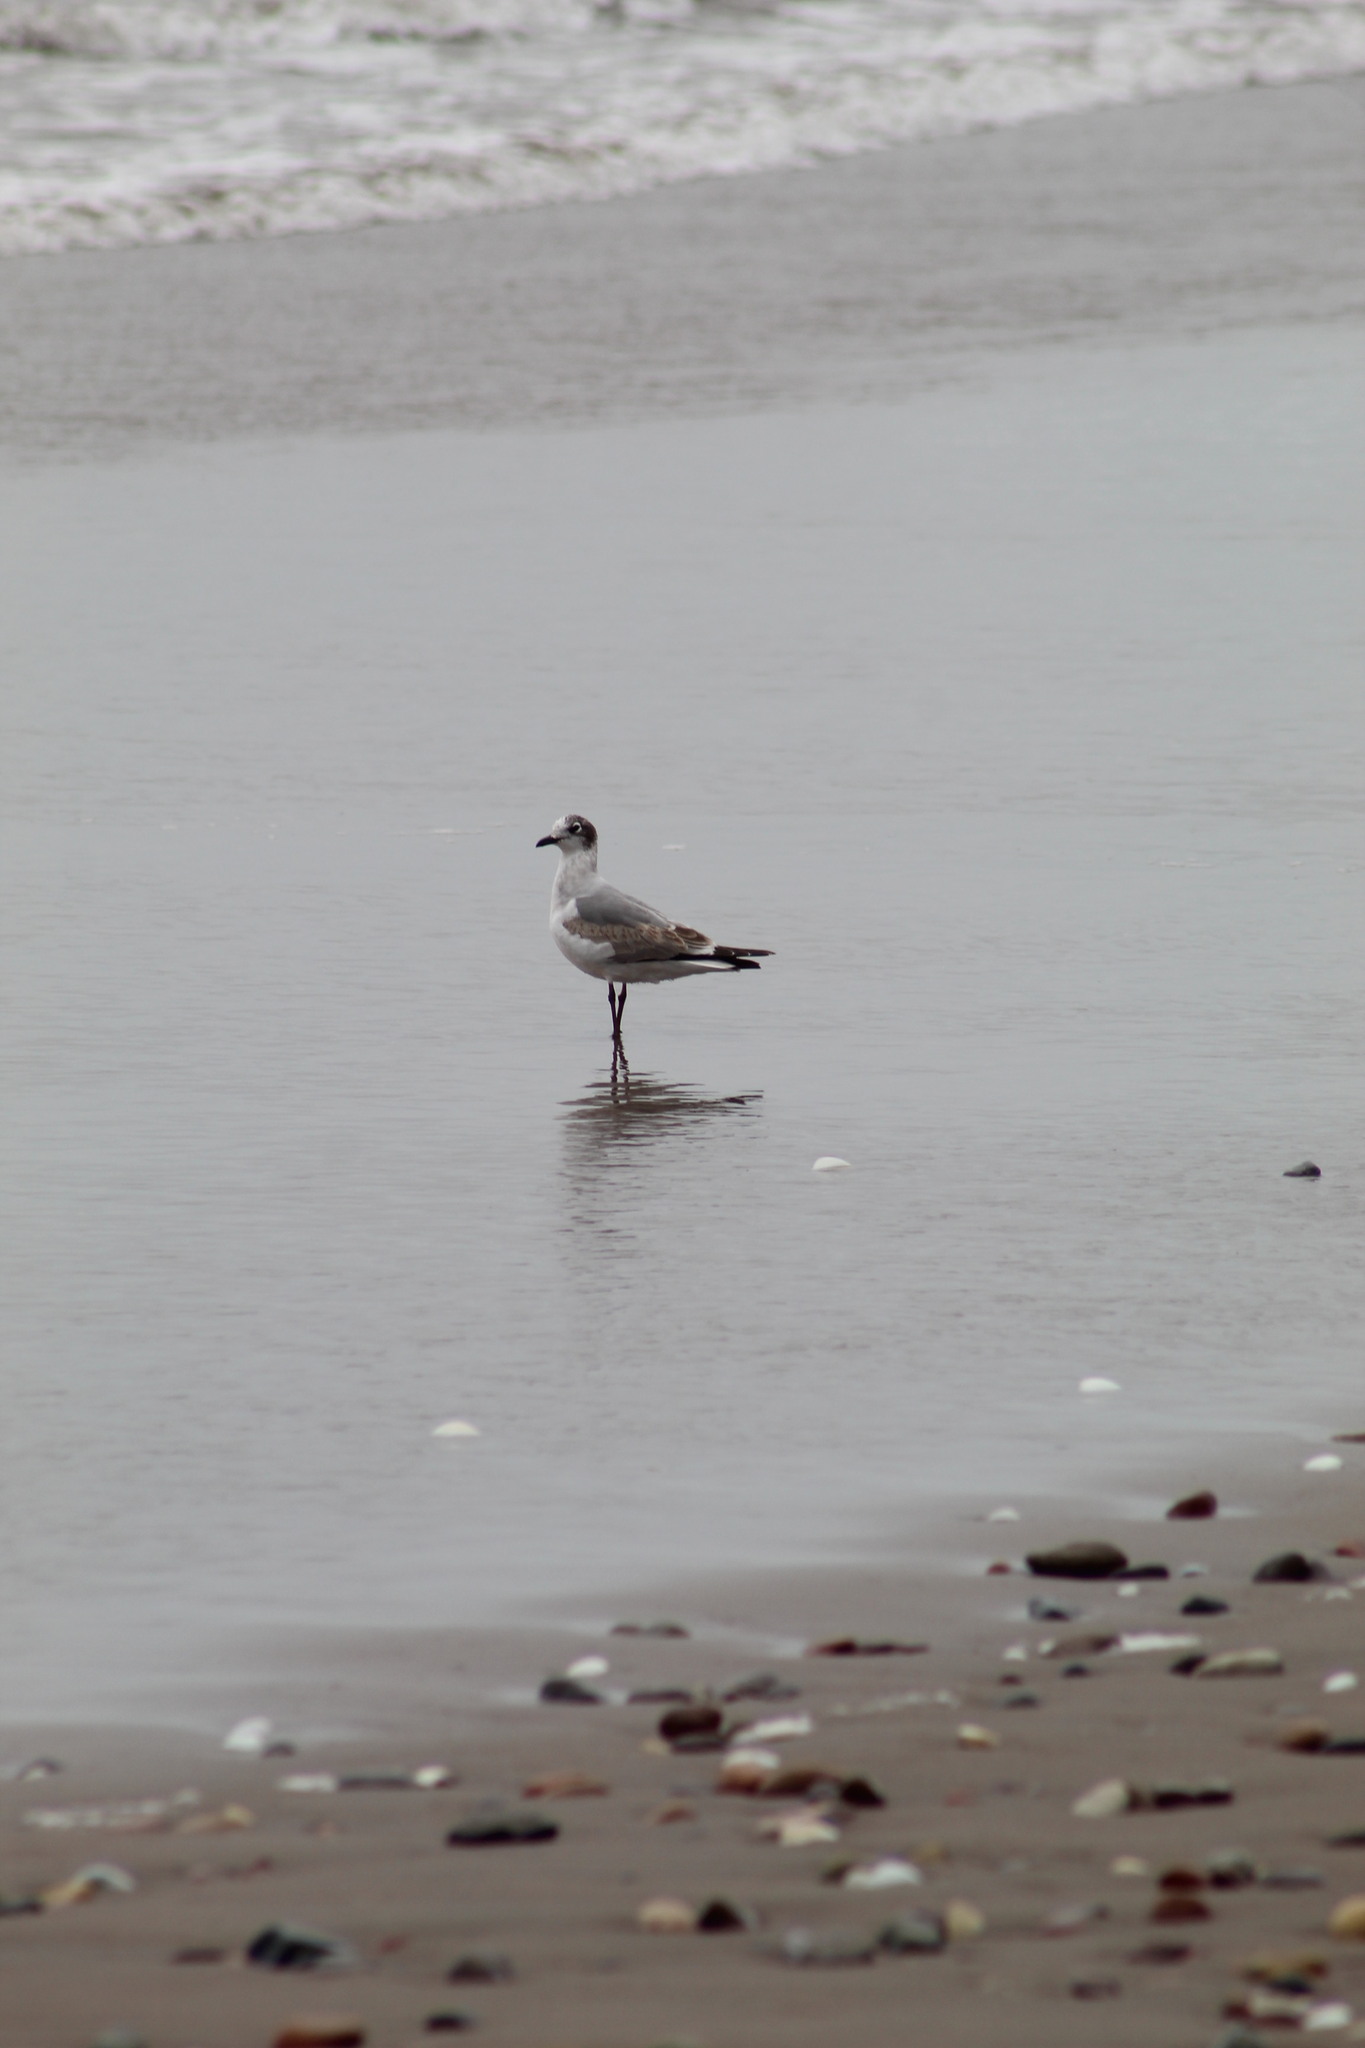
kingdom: Animalia
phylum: Chordata
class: Aves
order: Charadriiformes
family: Laridae
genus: Leucophaeus
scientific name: Leucophaeus pipixcan
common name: Franklin's gull
